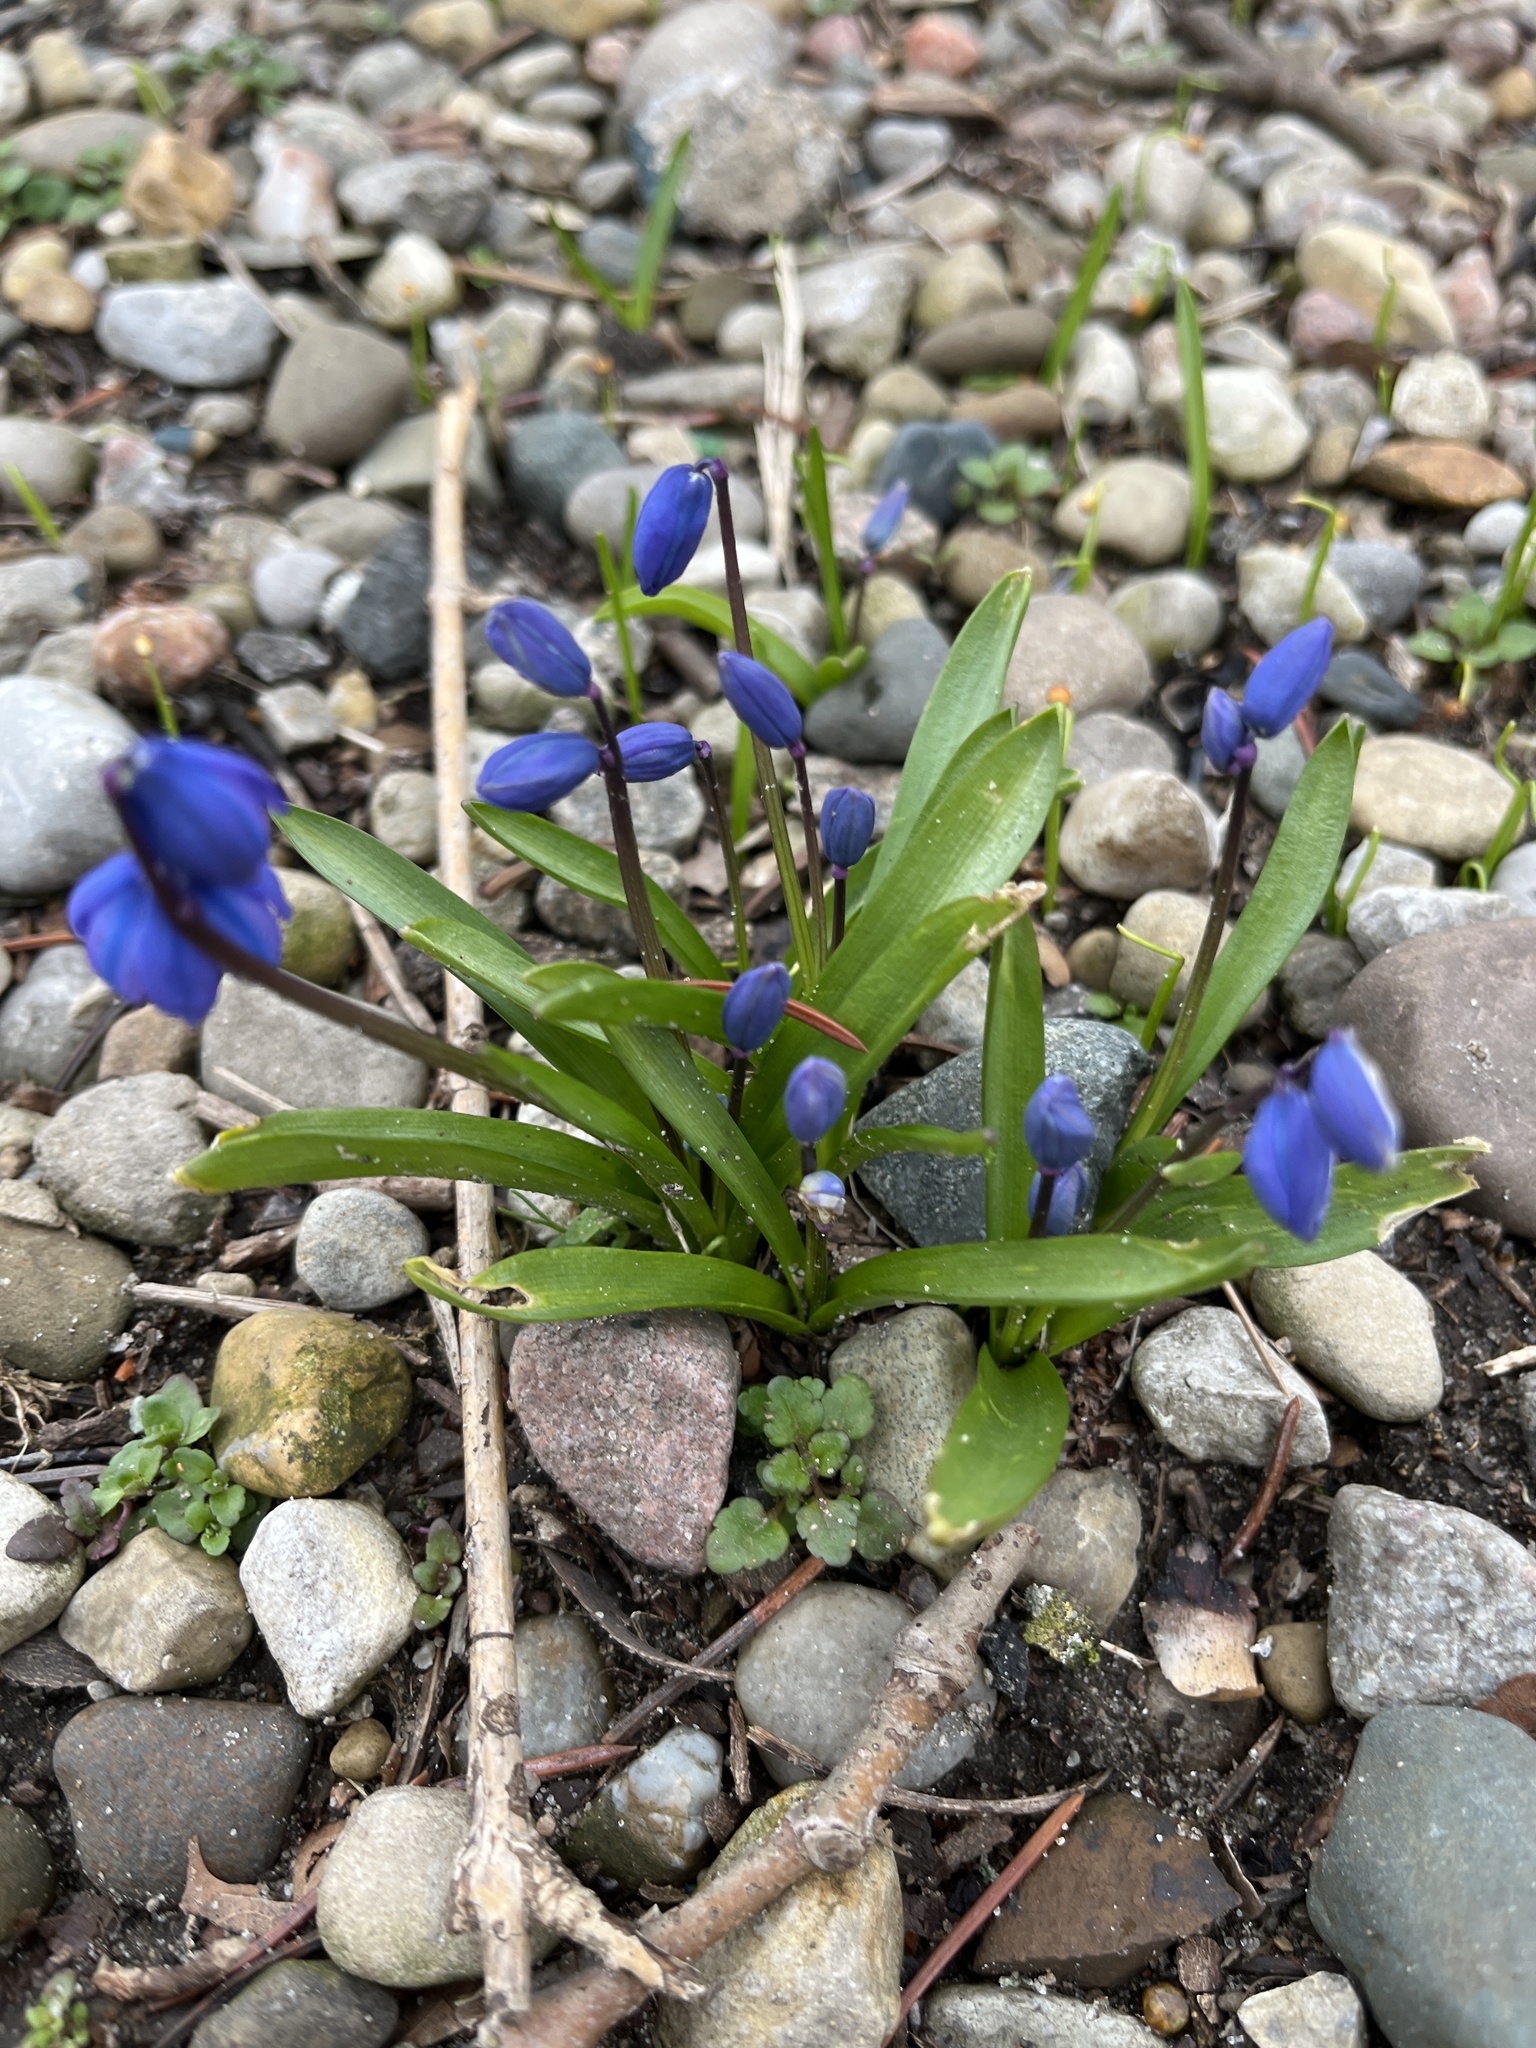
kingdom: Plantae
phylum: Tracheophyta
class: Liliopsida
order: Asparagales
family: Asparagaceae
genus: Scilla
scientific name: Scilla siberica
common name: Siberian squill
